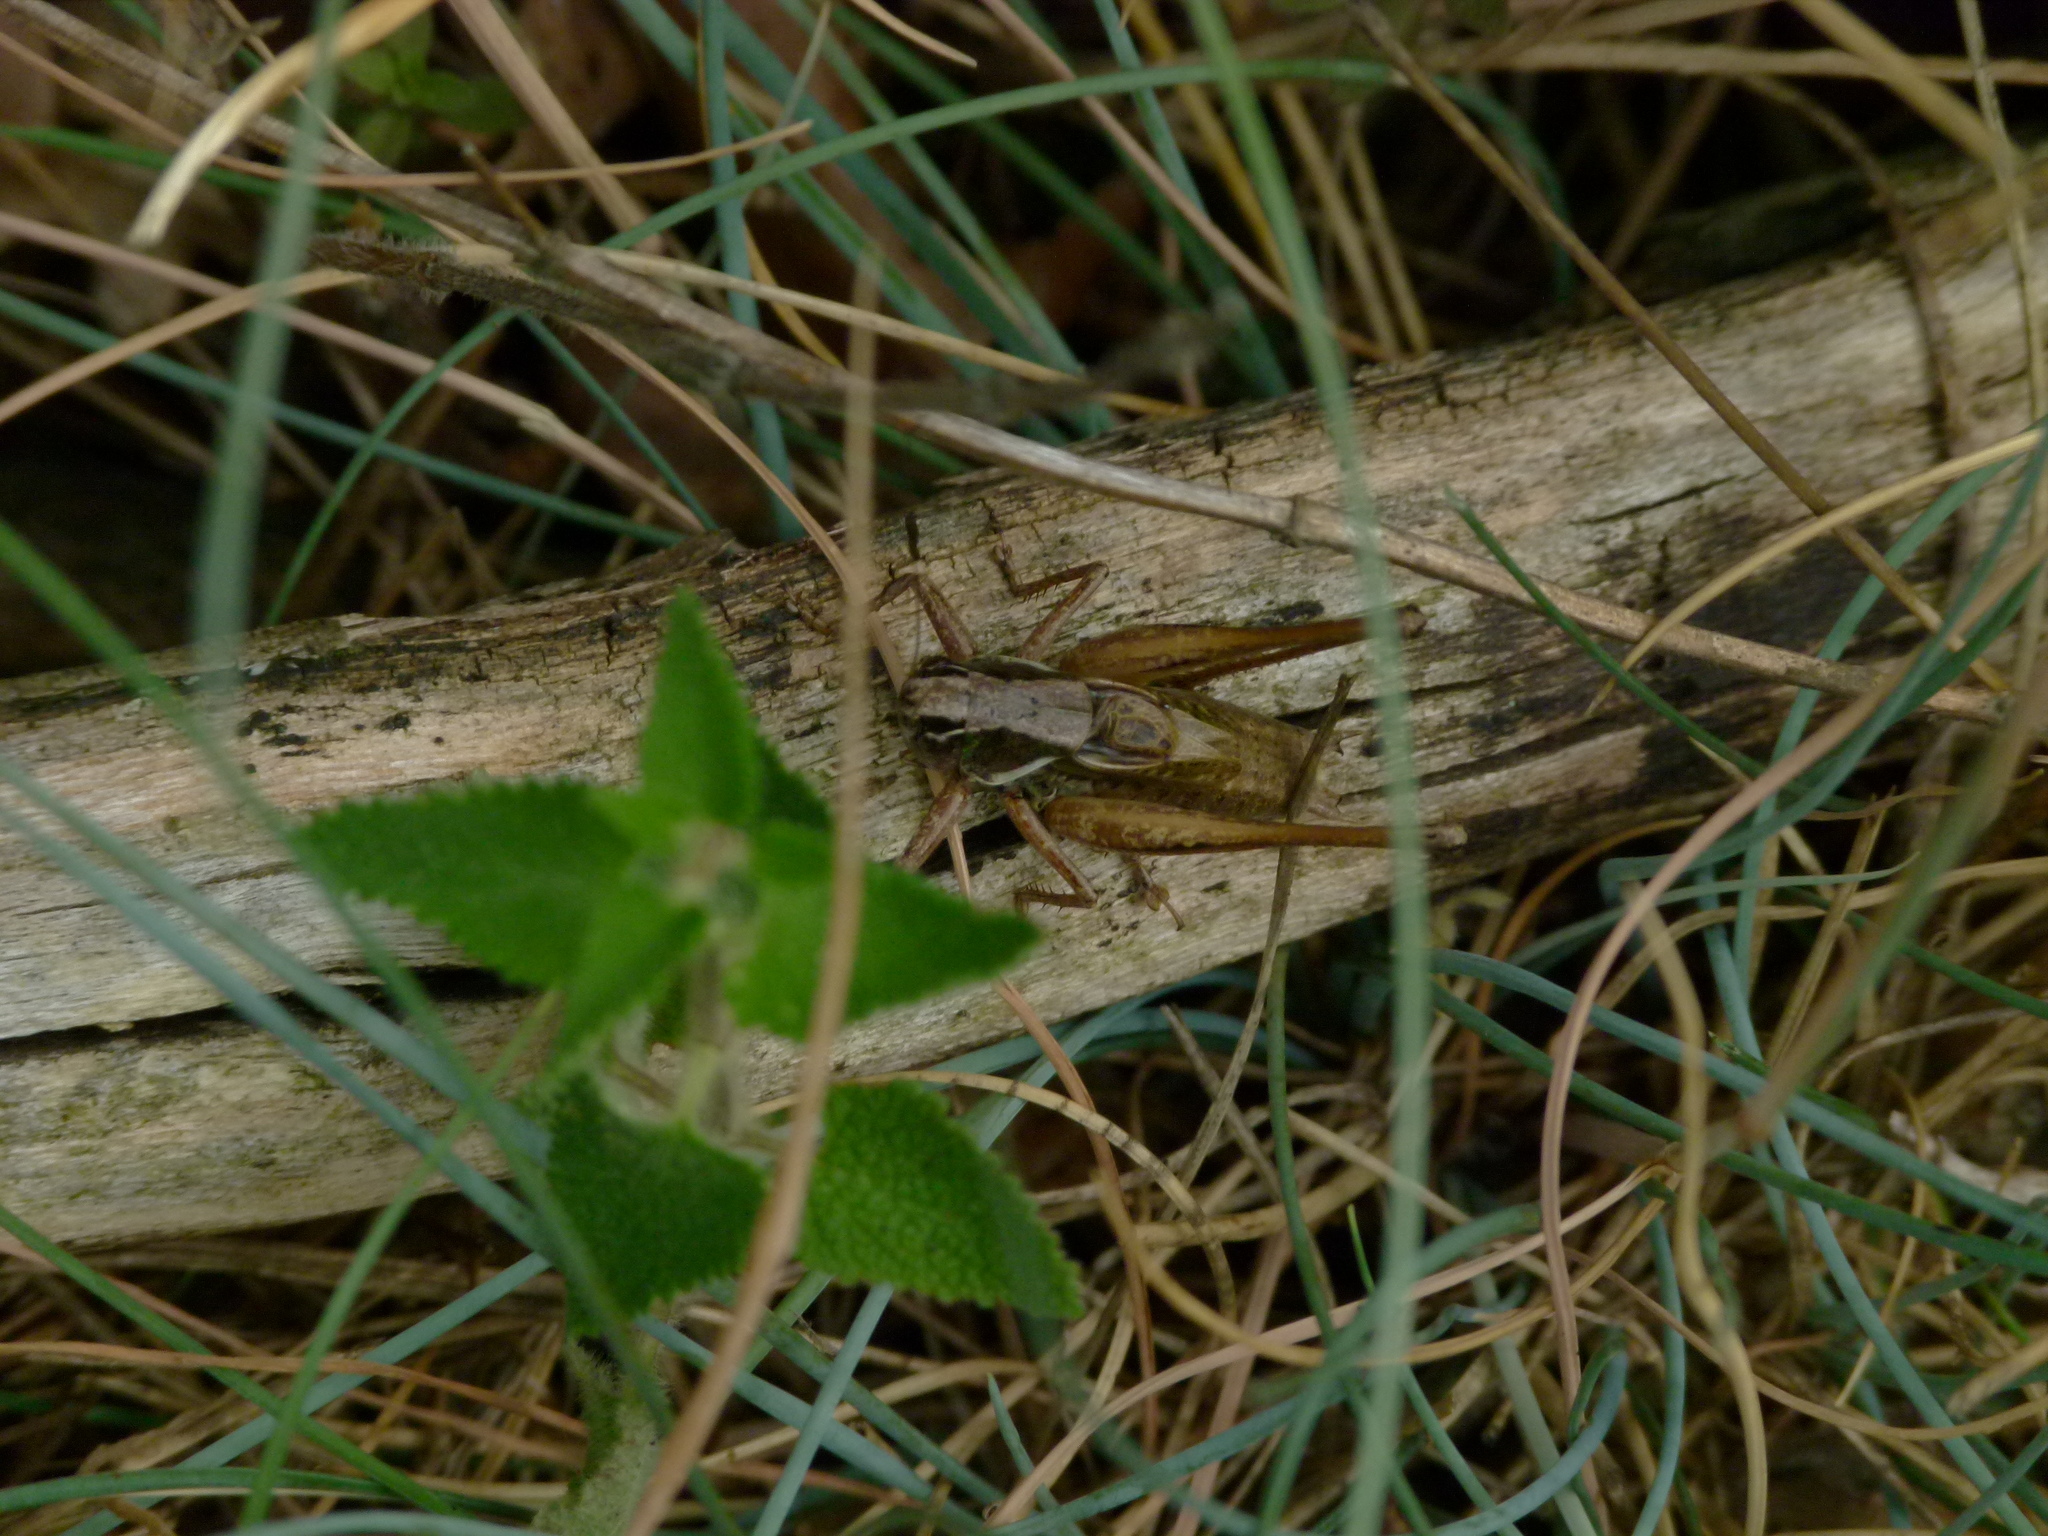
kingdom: Animalia
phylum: Arthropoda
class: Insecta
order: Orthoptera
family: Tettigoniidae
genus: Metrioptera
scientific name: Metrioptera saussuriana
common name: Purple meadow bush-cricket
